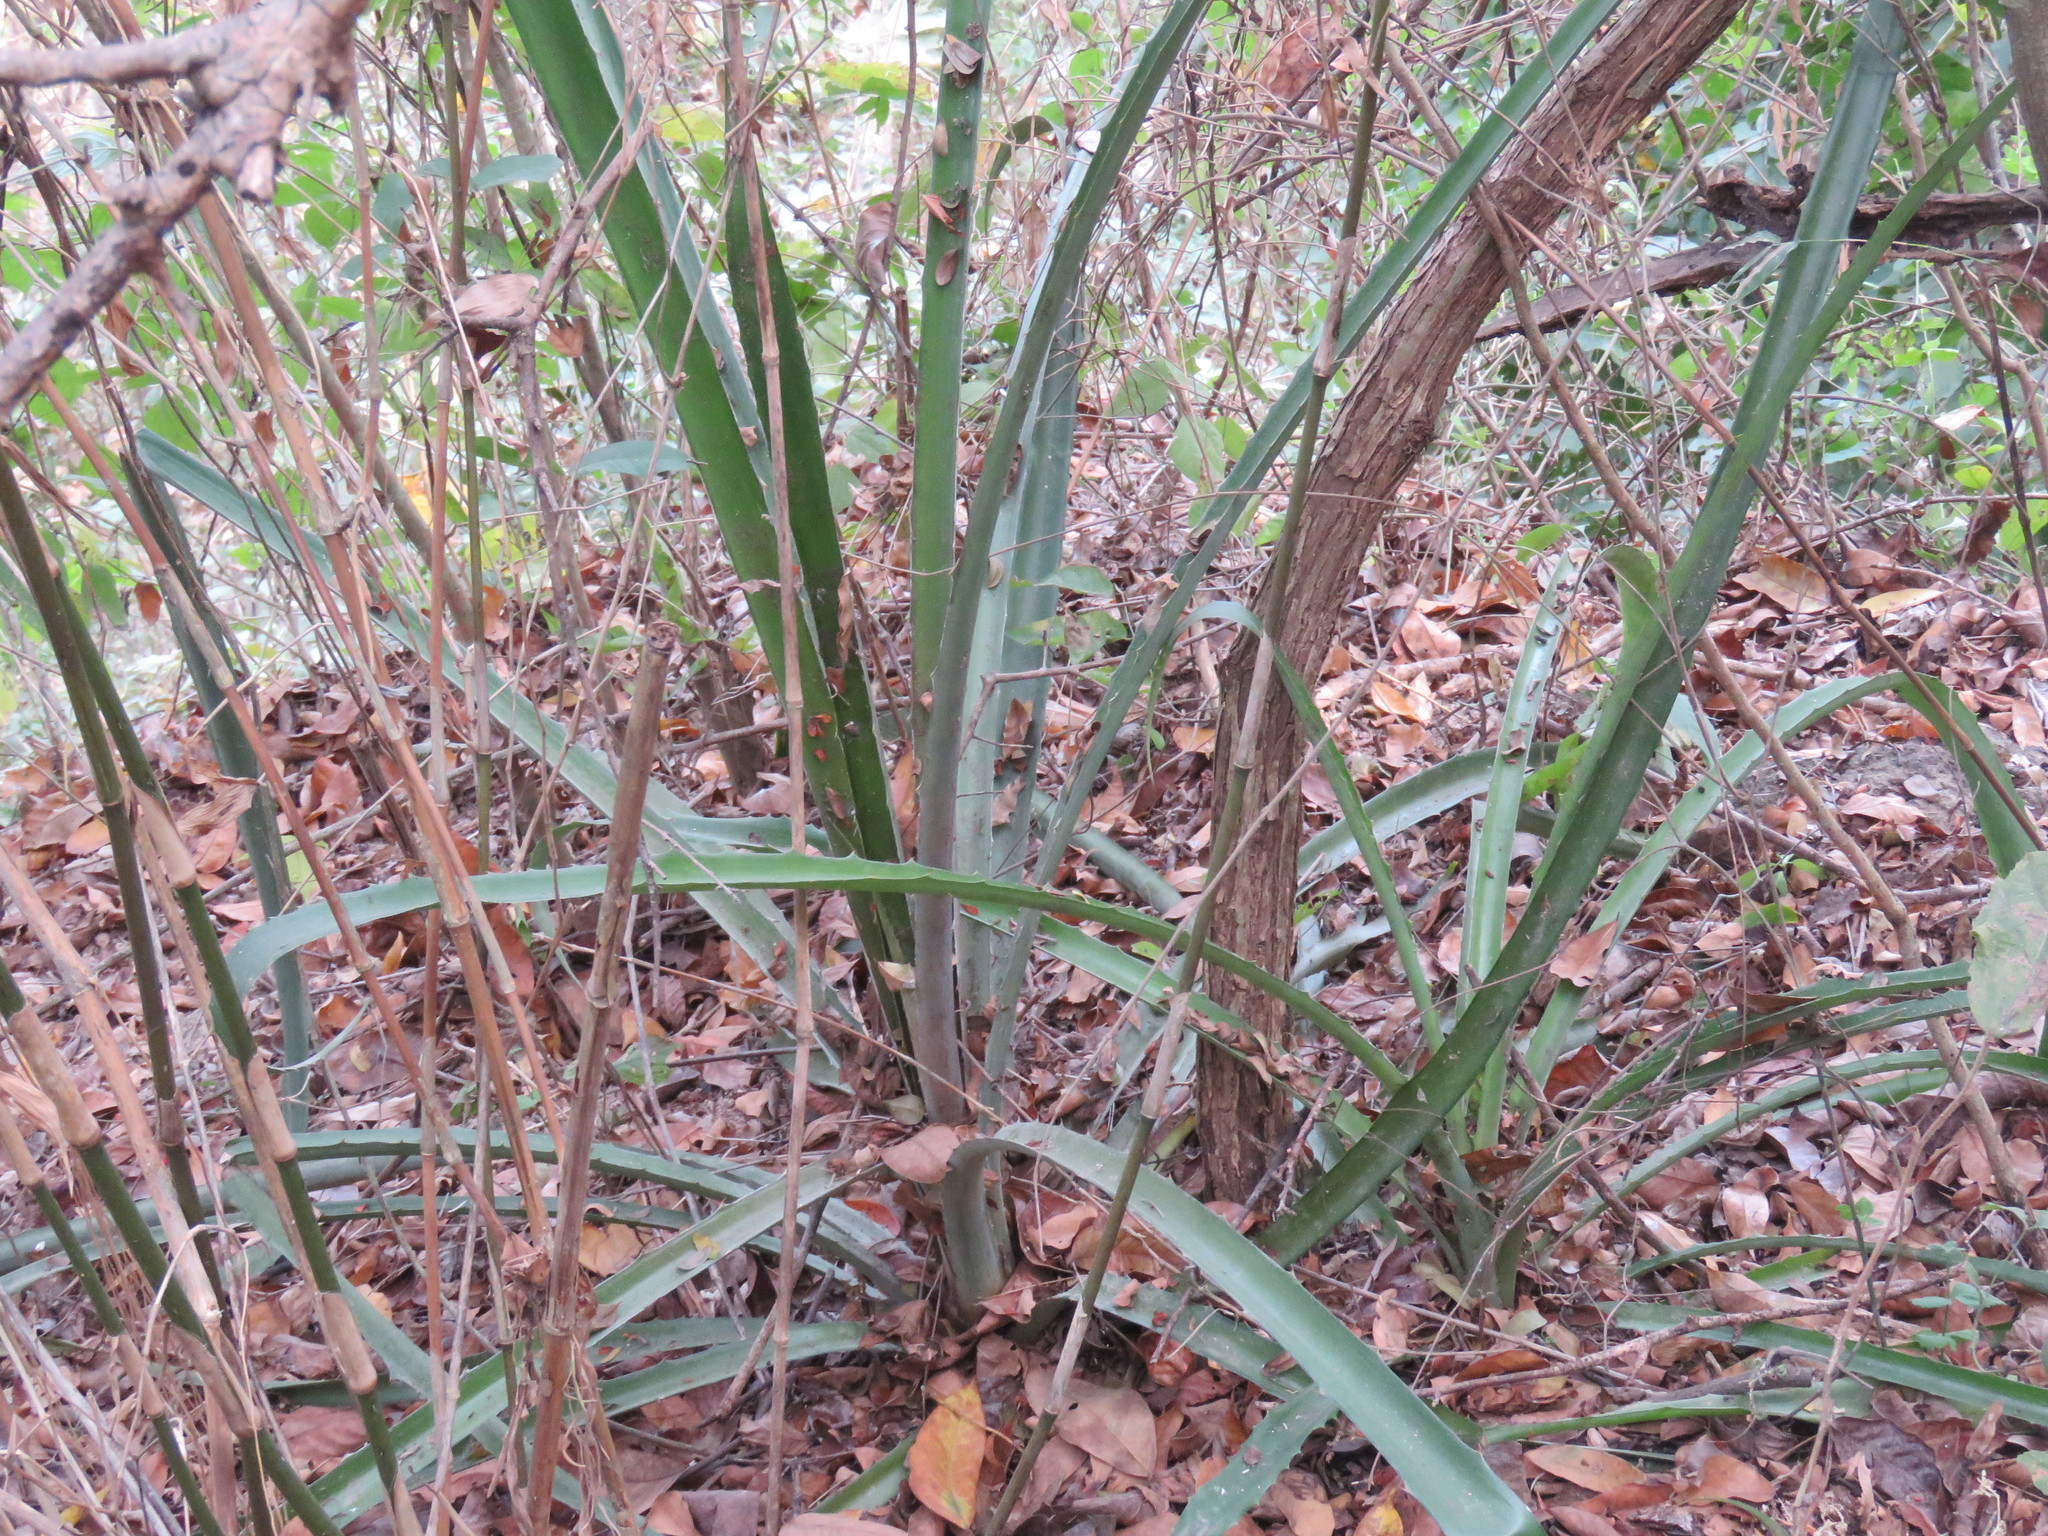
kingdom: Plantae
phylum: Tracheophyta
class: Liliopsida
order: Poales
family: Bromeliaceae
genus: Bromelia
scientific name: Bromelia pinguin
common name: Pinguin
